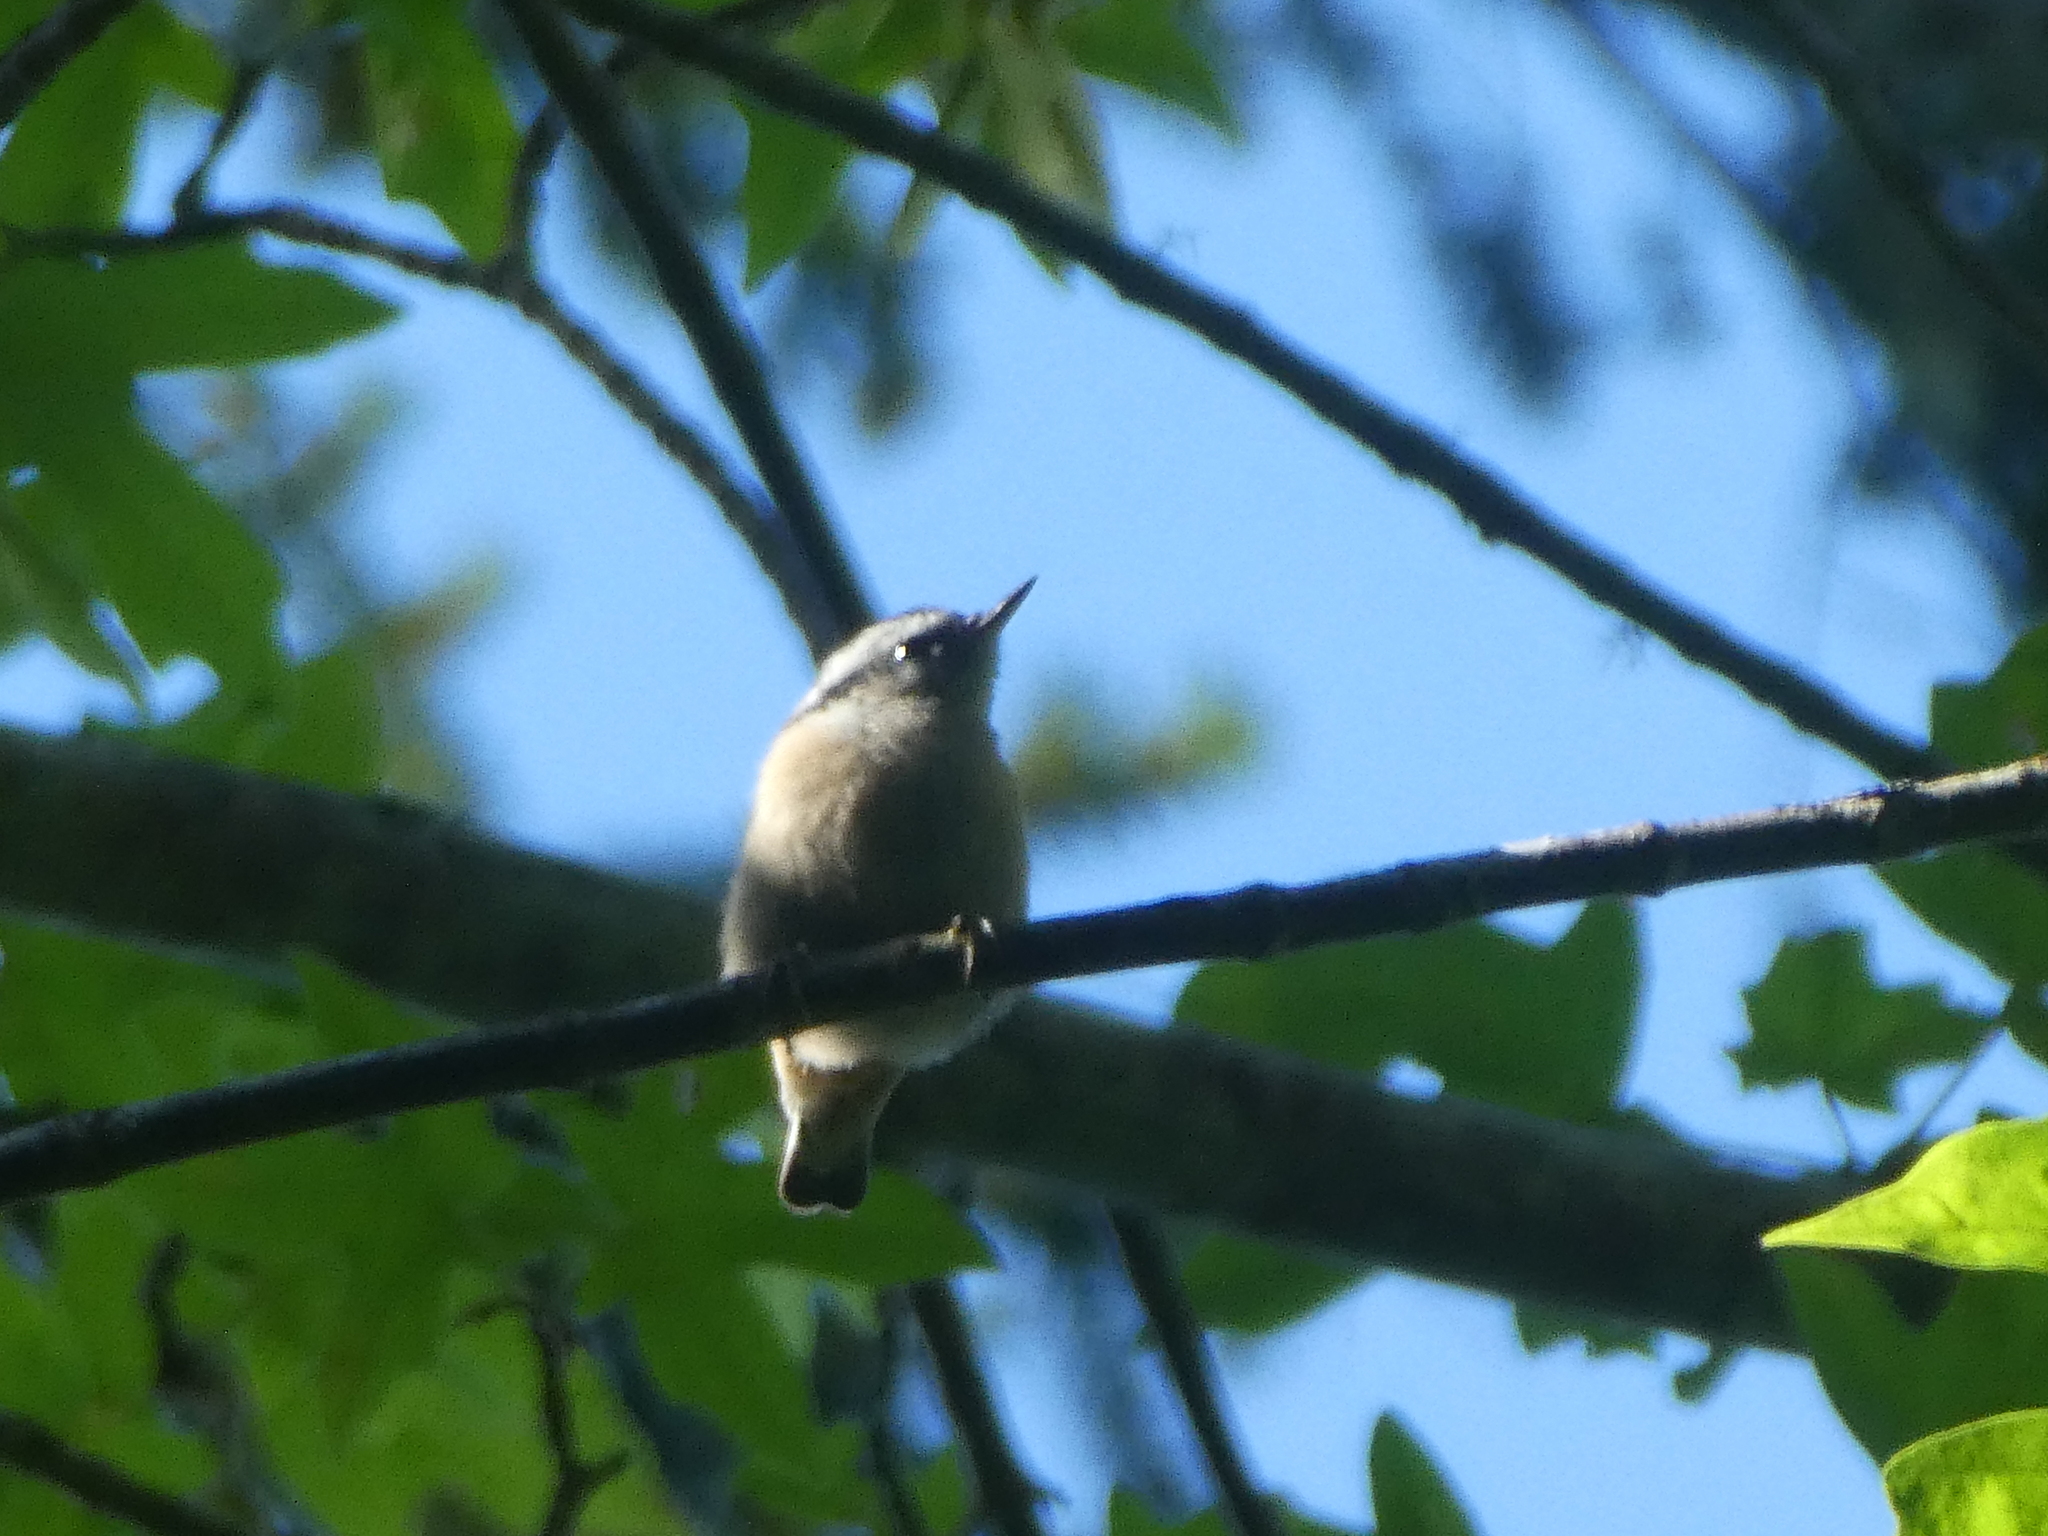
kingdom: Animalia
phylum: Chordata
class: Aves
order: Passeriformes
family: Sittidae
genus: Sitta
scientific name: Sitta canadensis
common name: Red-breasted nuthatch
